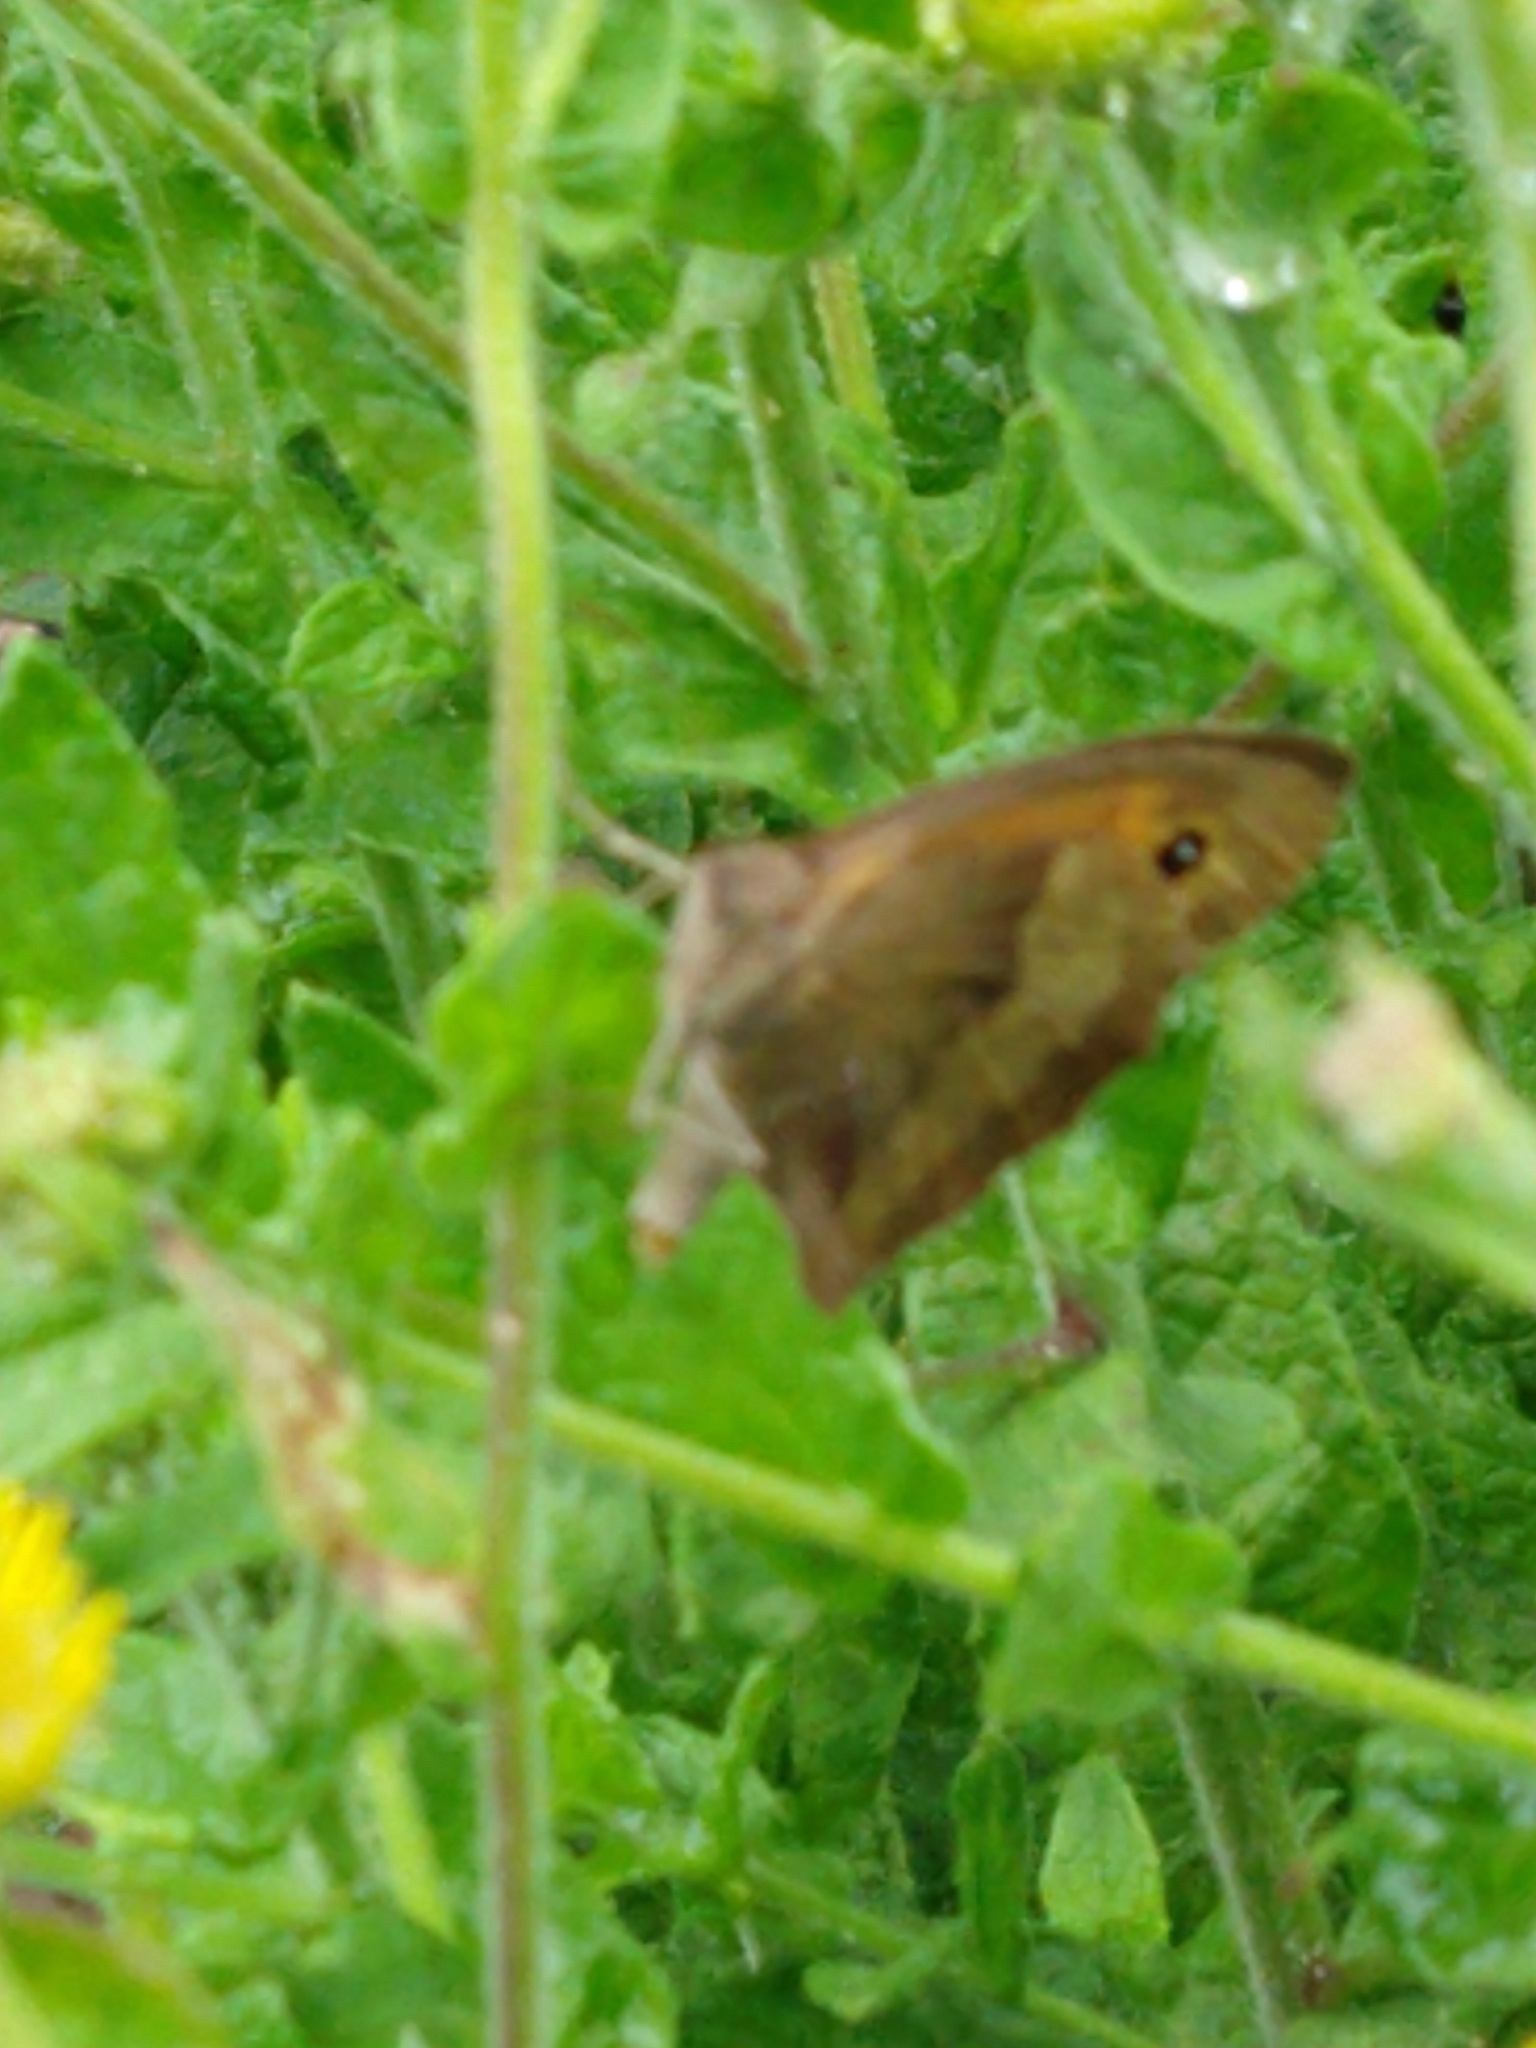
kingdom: Animalia
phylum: Arthropoda
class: Insecta
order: Lepidoptera
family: Nymphalidae
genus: Maniola
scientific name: Maniola jurtina
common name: Meadow brown
